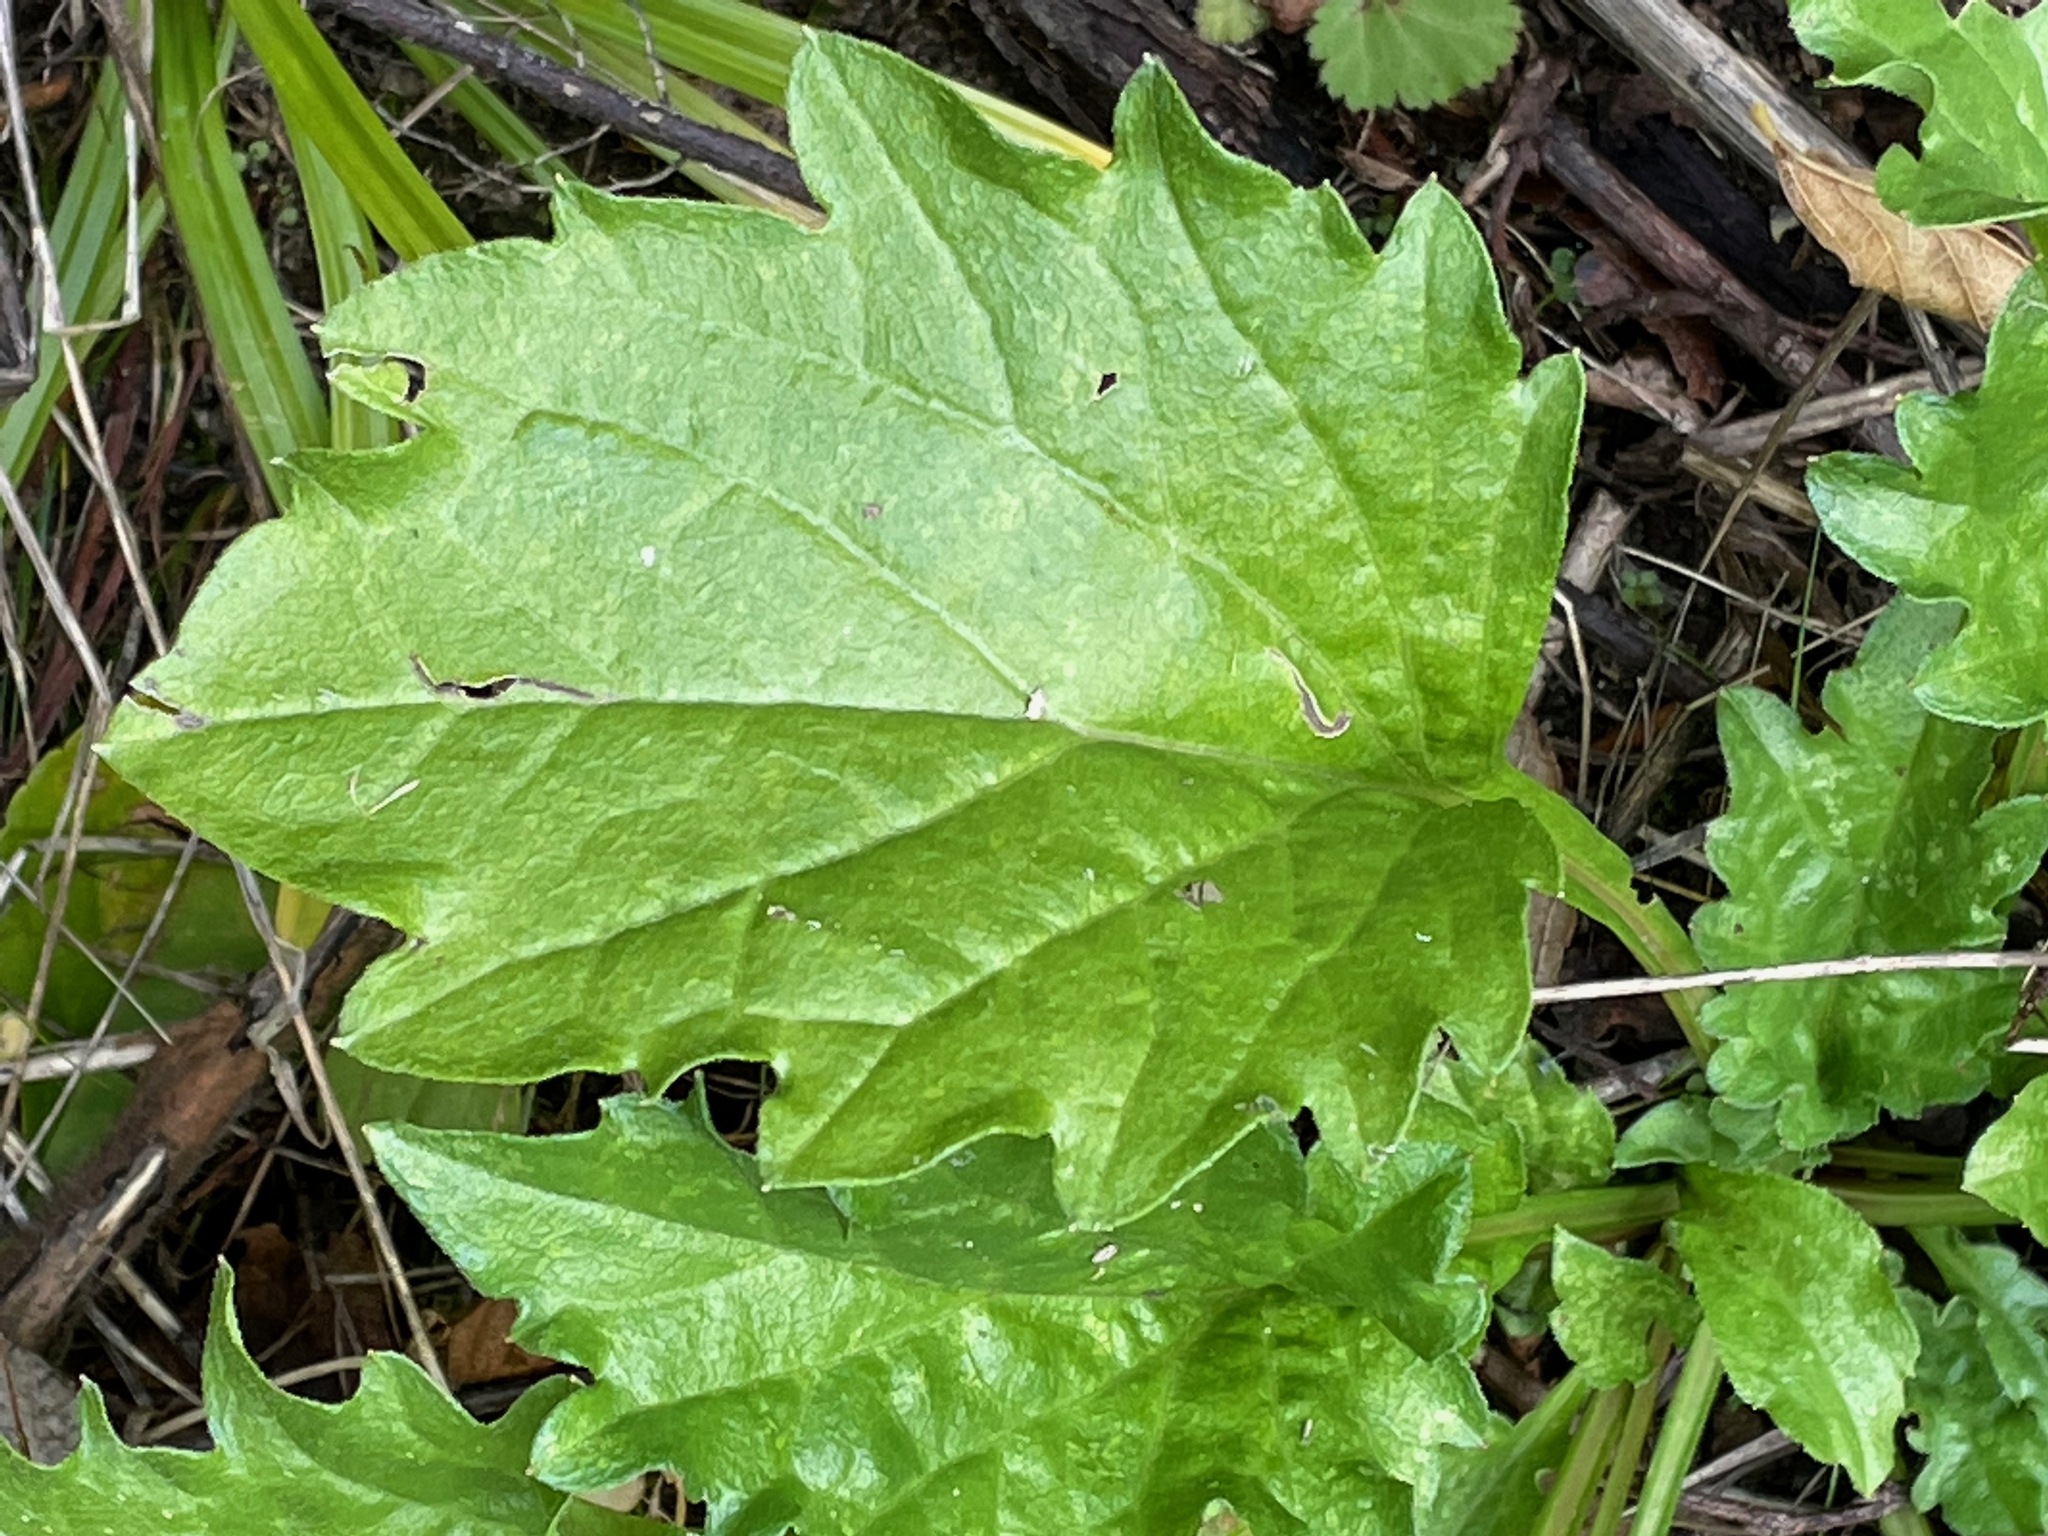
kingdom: Plantae
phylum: Tracheophyta
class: Magnoliopsida
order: Asterales
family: Asteraceae
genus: Erigeron
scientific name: Erigeron annuus
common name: Tall fleabane
